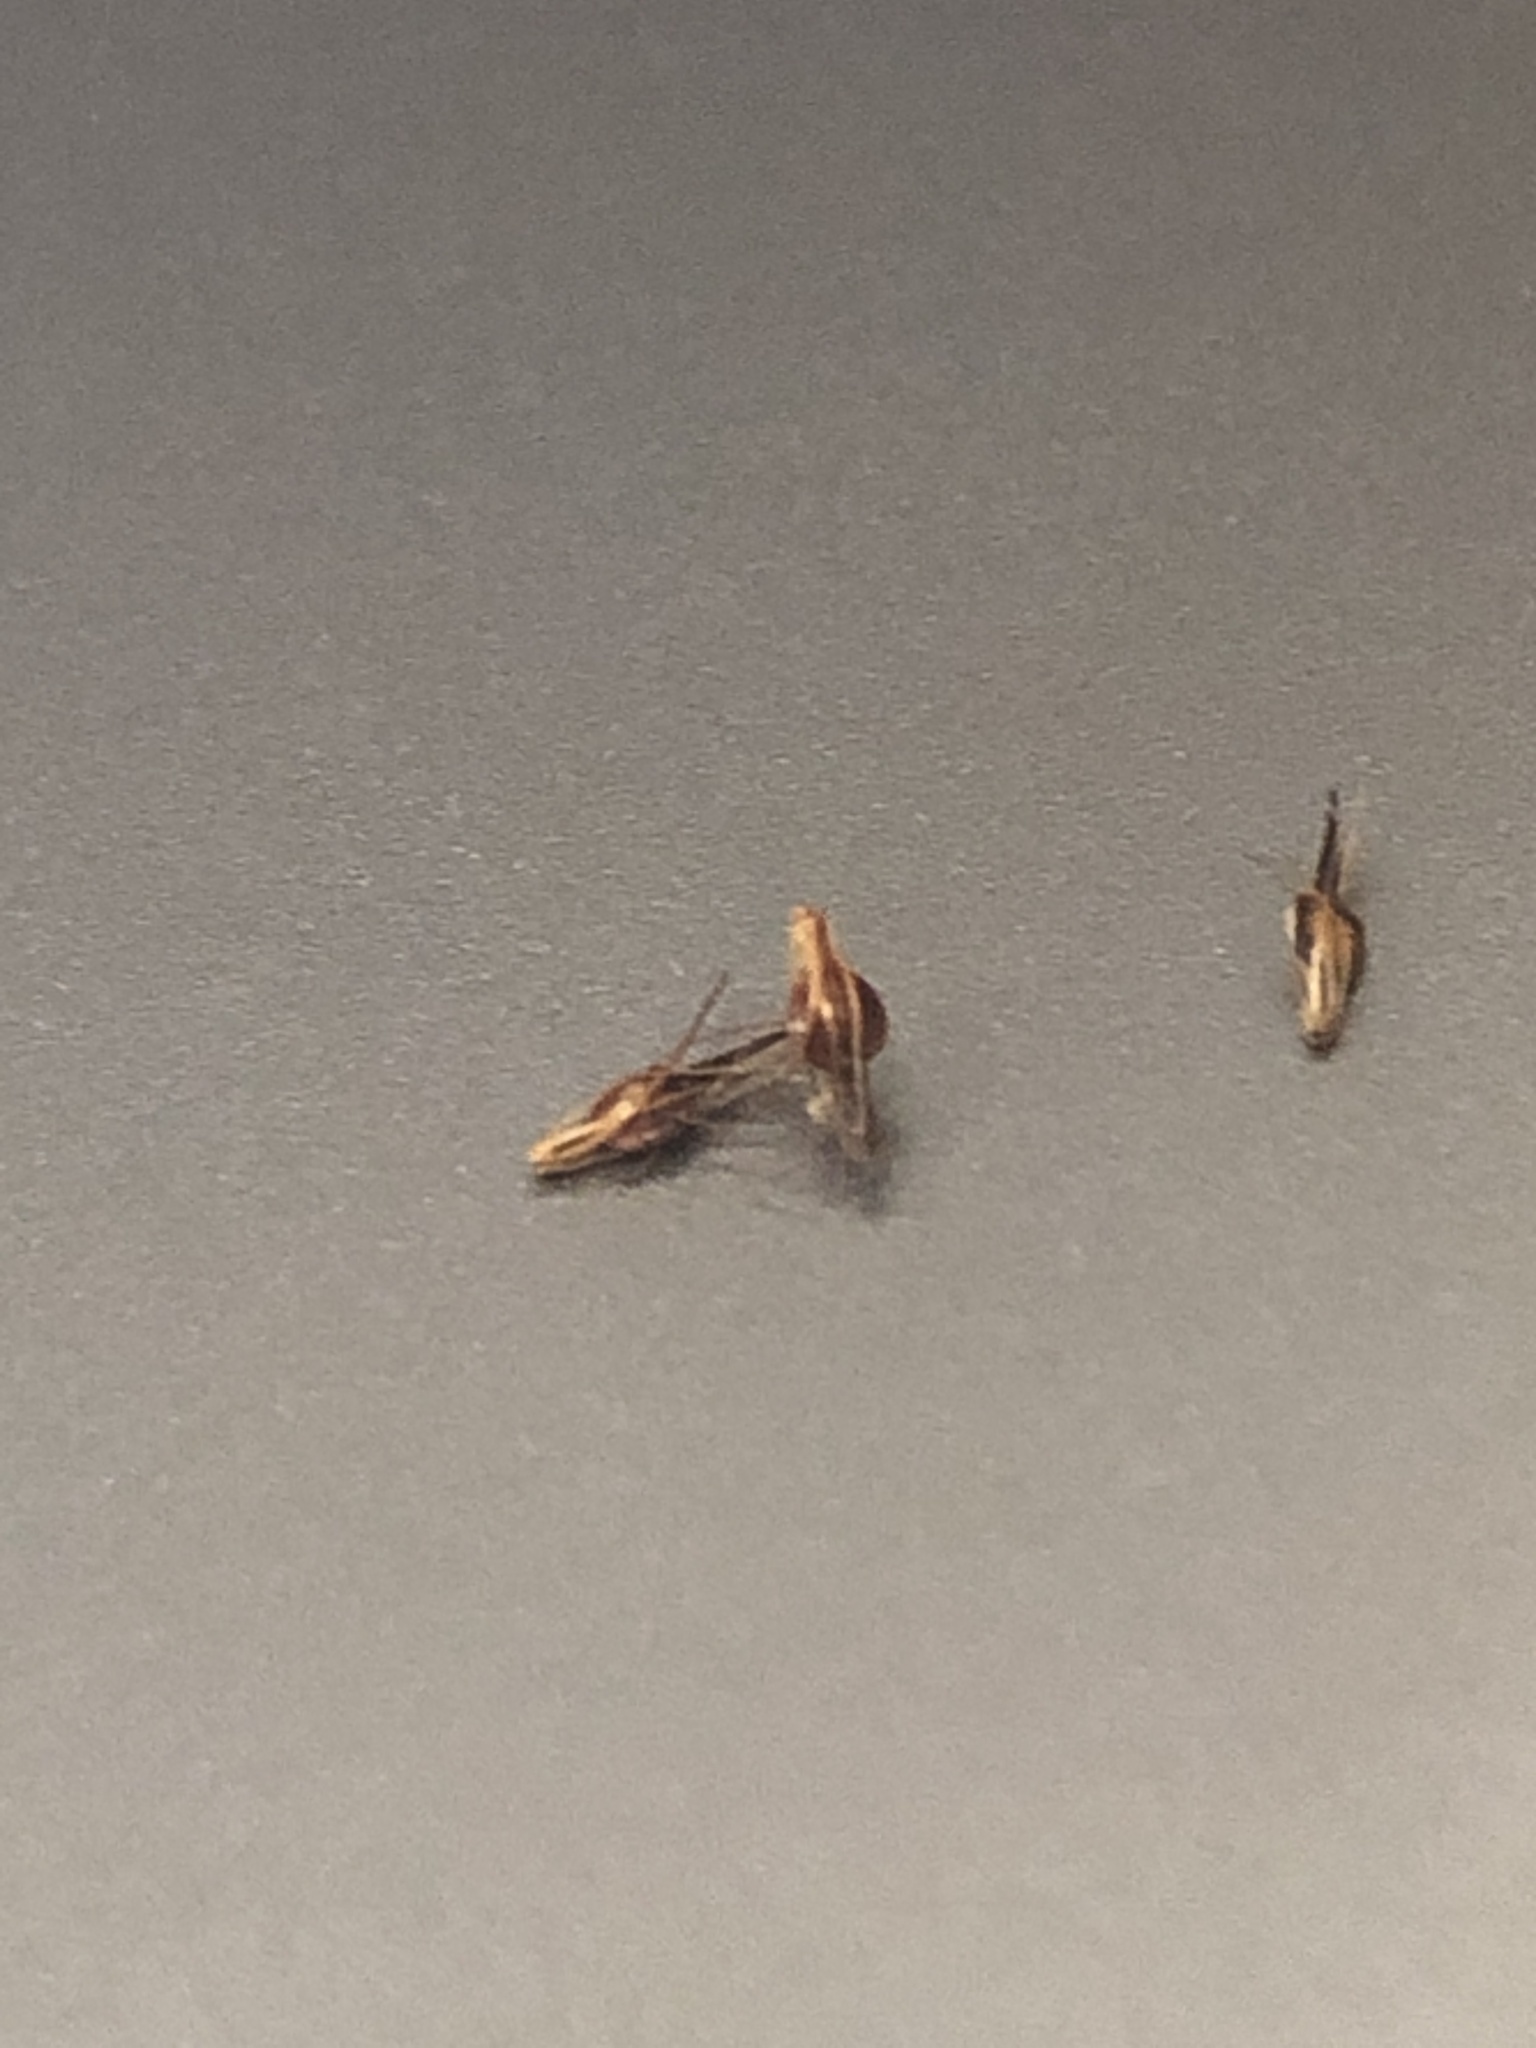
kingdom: Plantae
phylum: Tracheophyta
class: Liliopsida
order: Poales
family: Cyperaceae
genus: Rhynchospora
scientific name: Rhynchospora chalarocephala
